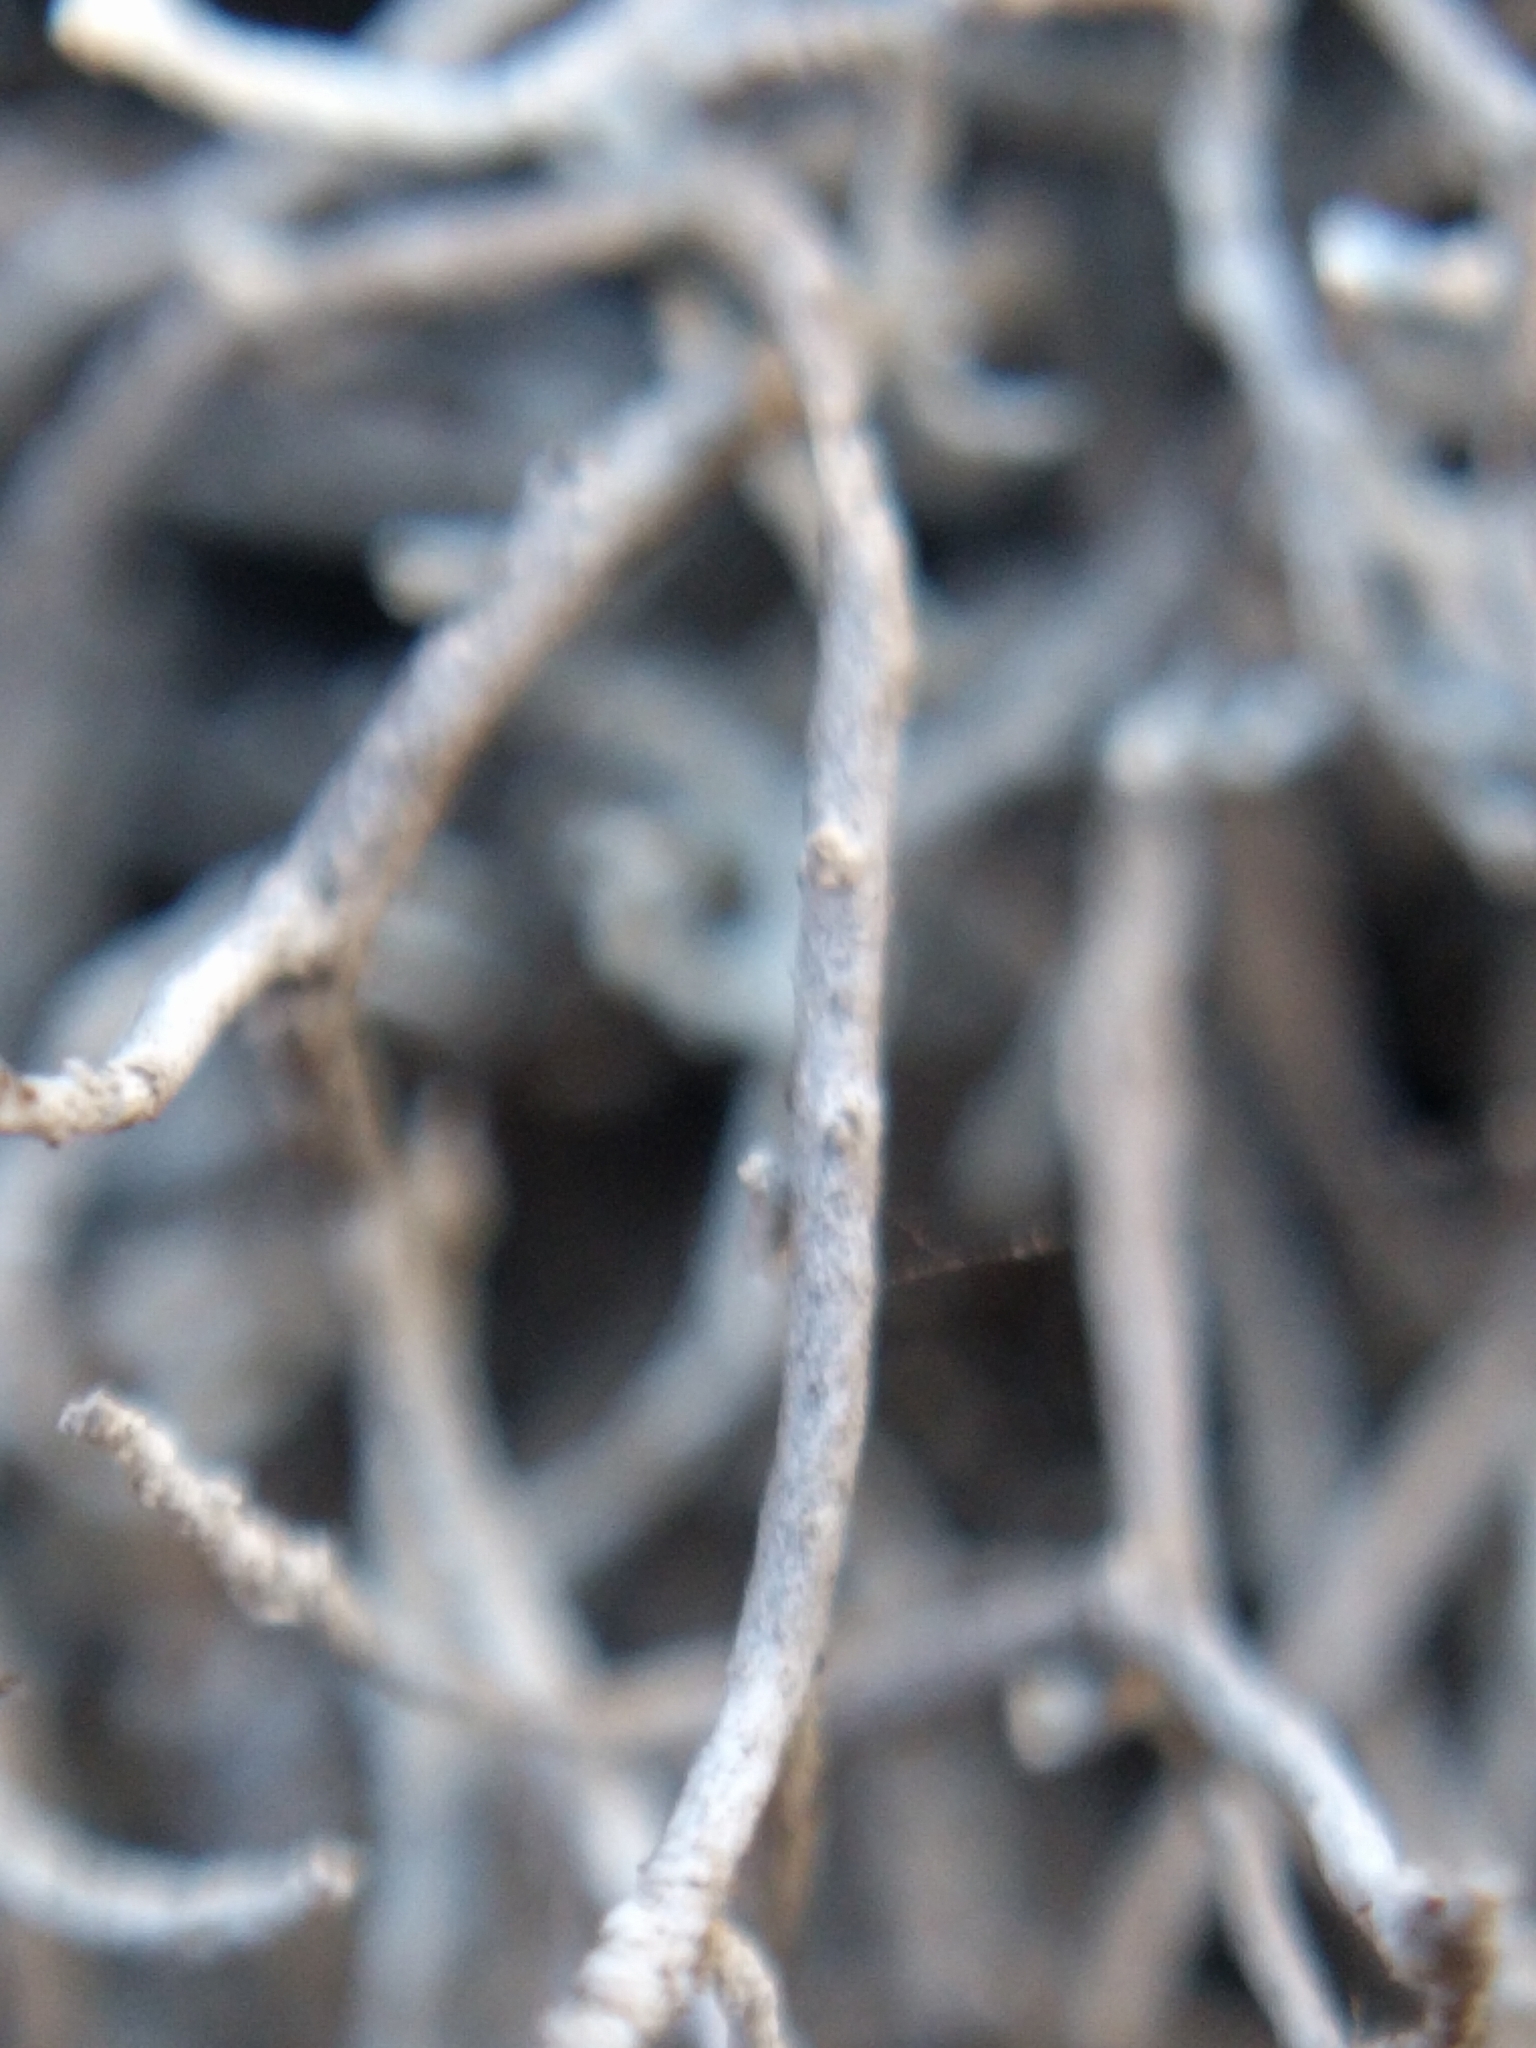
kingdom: Fungi
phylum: Ascomycota
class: Arthoniomycetes
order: Arthoniales
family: Roccellaceae
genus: Dendrographa
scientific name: Dendrographa alectoroides
